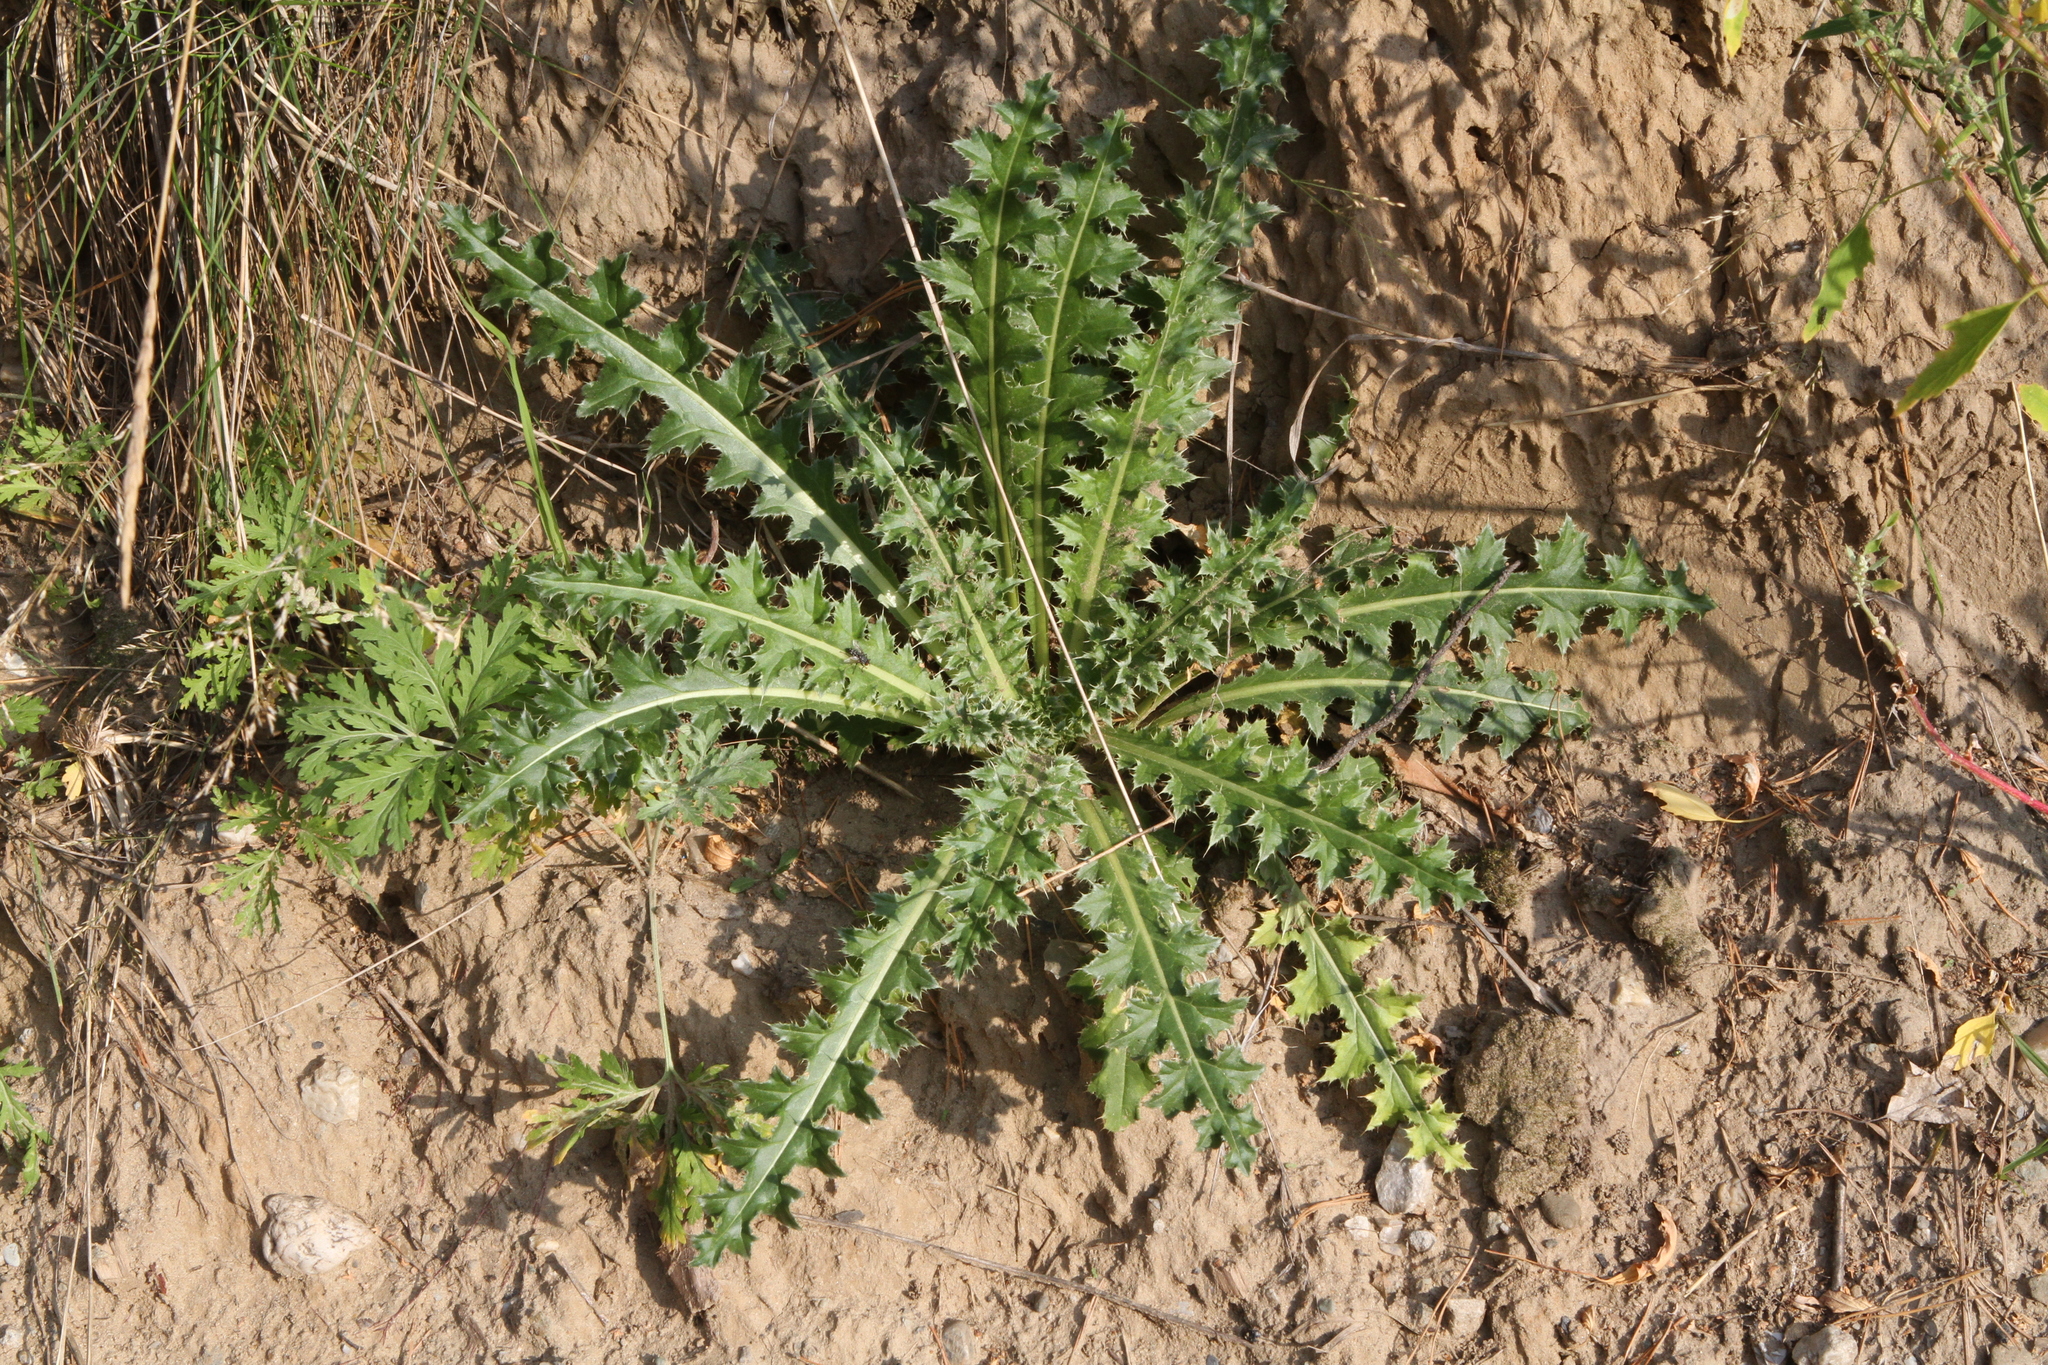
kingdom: Plantae
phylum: Tracheophyta
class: Magnoliopsida
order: Asterales
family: Asteraceae
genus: Carduus
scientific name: Carduus nutans
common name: Musk thistle
